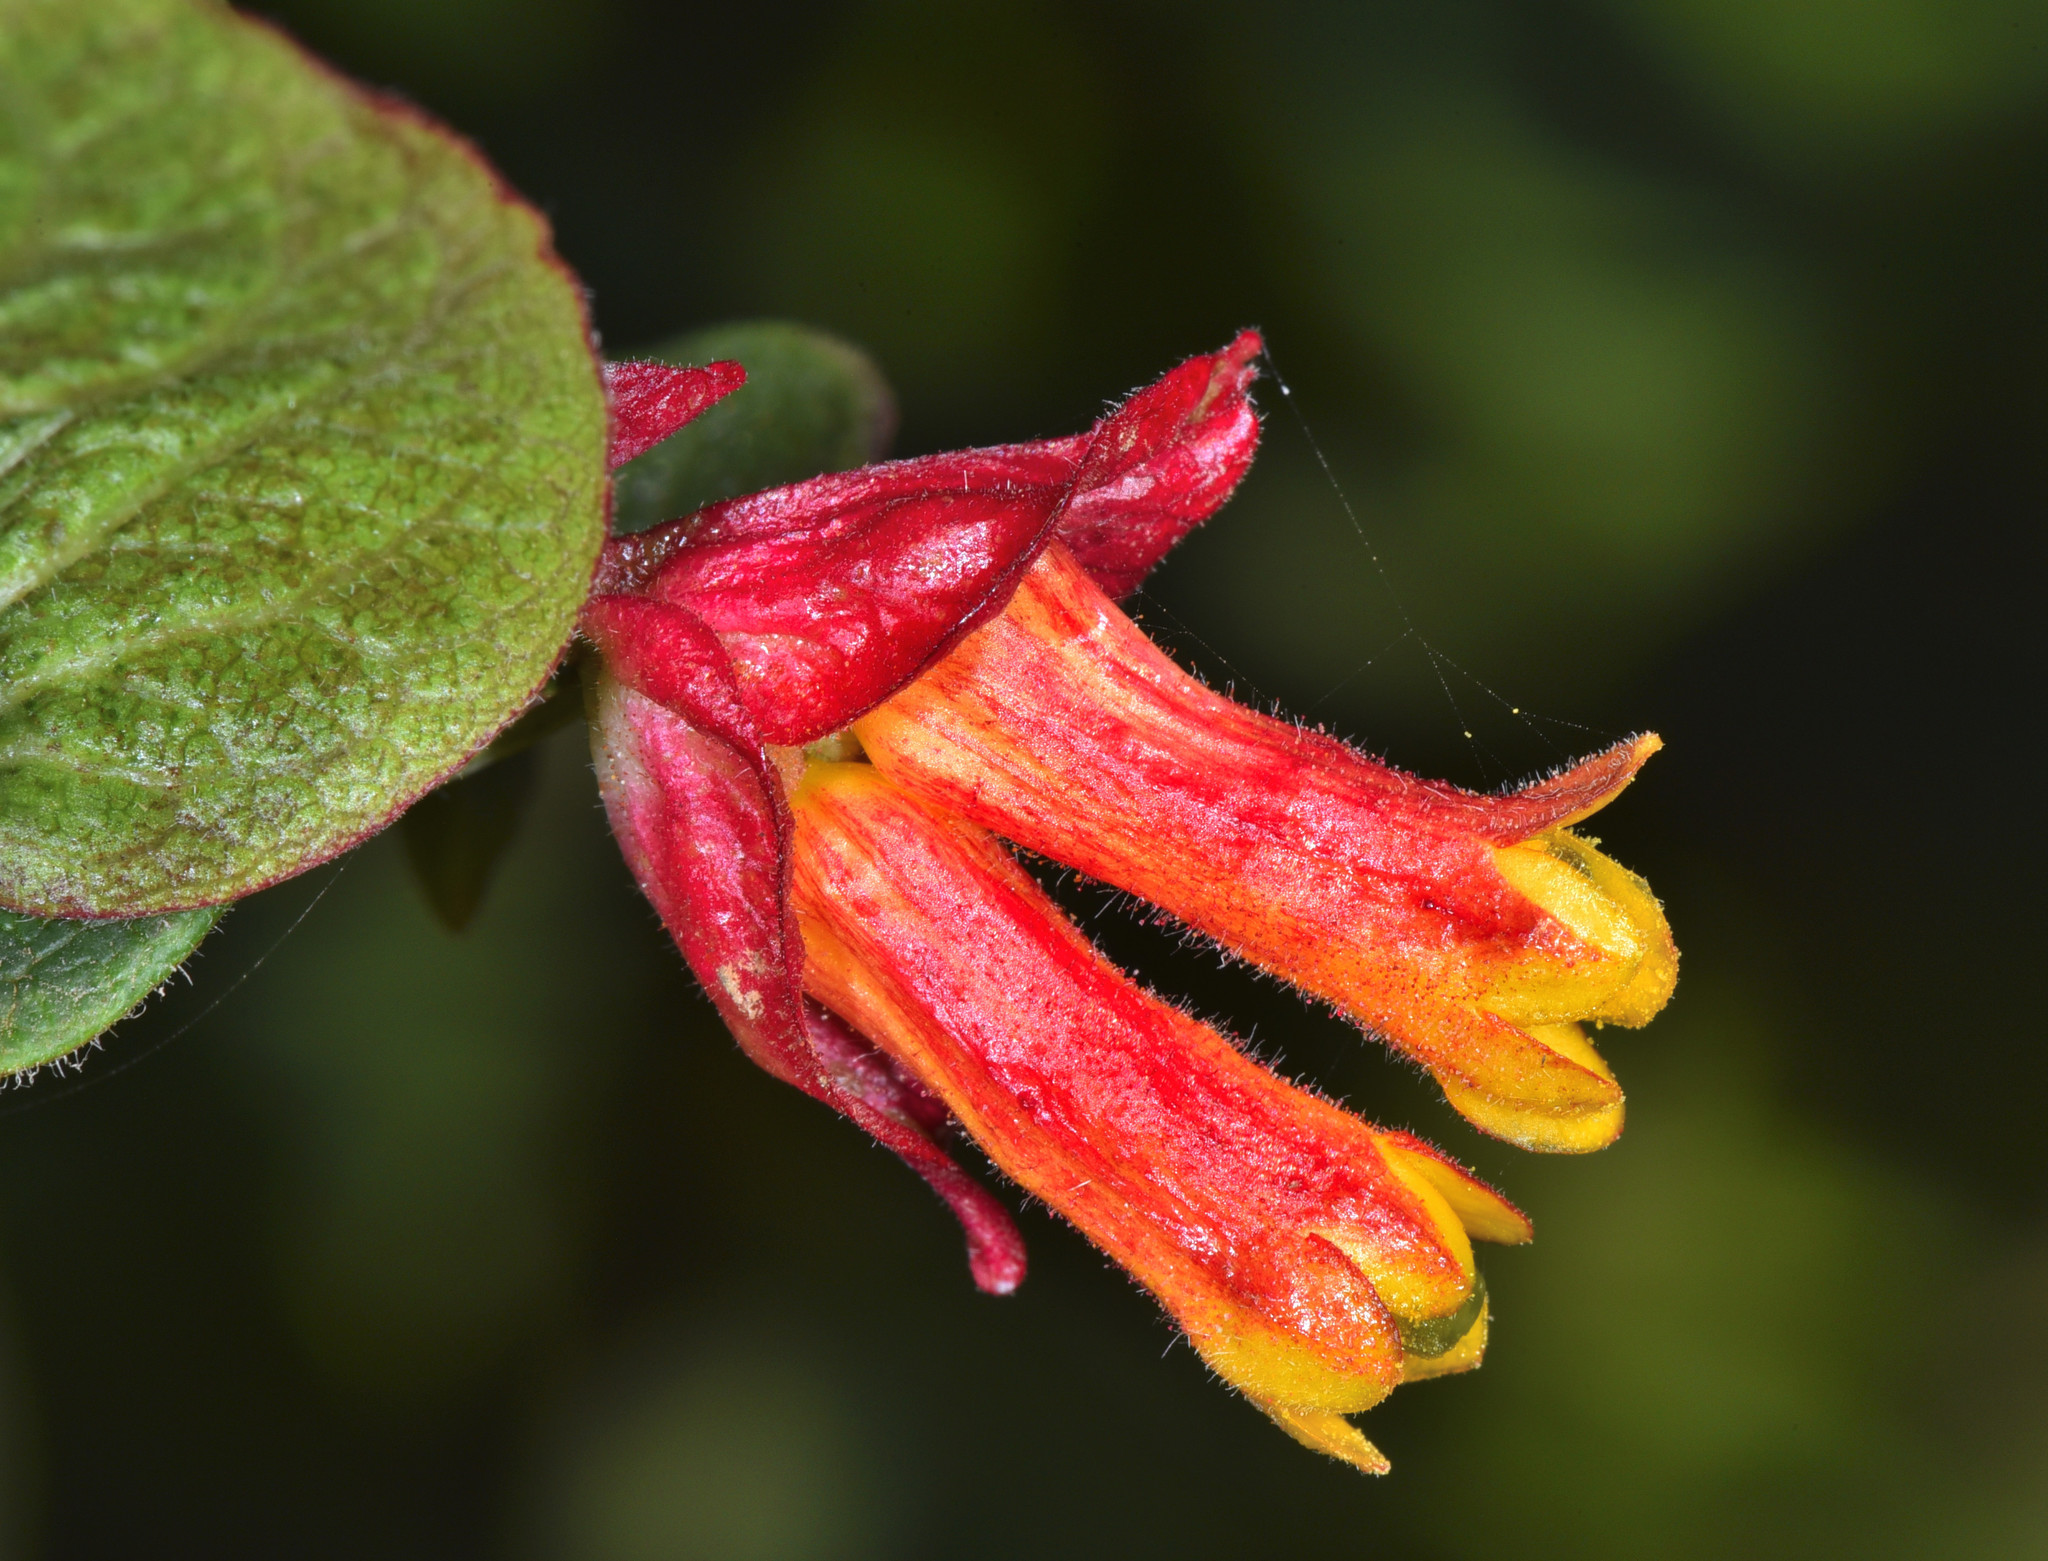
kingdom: Plantae
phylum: Tracheophyta
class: Magnoliopsida
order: Dipsacales
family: Caprifoliaceae
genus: Lonicera
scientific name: Lonicera involucrata
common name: Californian honeysuckle
